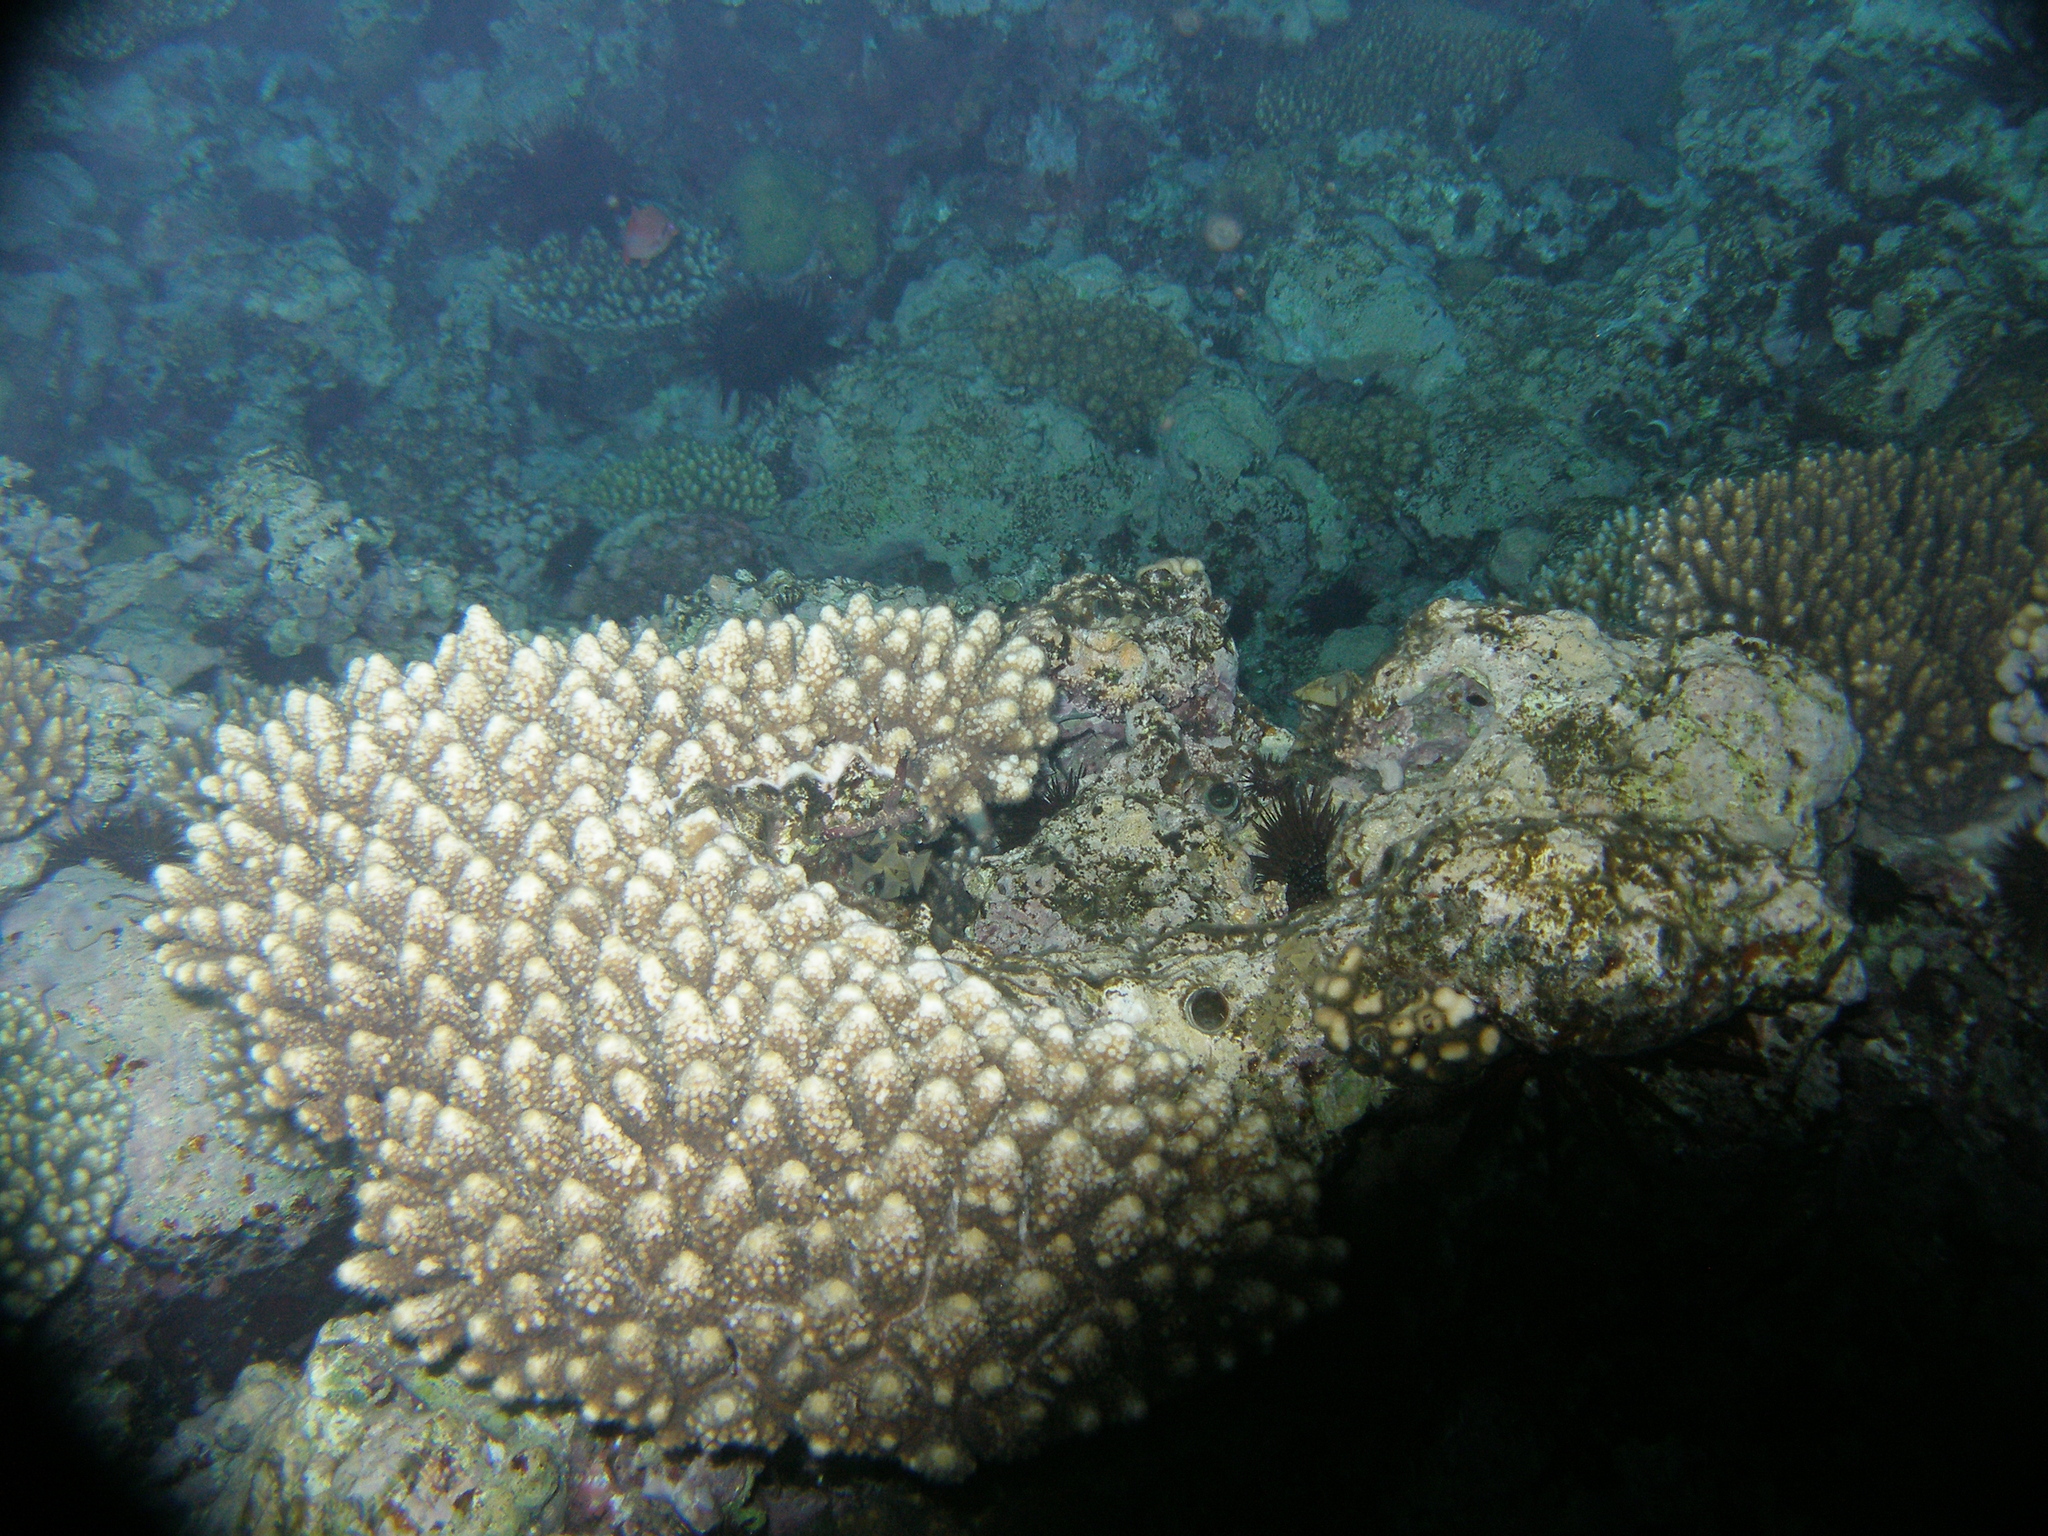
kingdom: Animalia
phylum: Cnidaria
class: Anthozoa
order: Scleractinia
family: Acroporidae
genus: Acropora
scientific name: Acropora gemmifera
